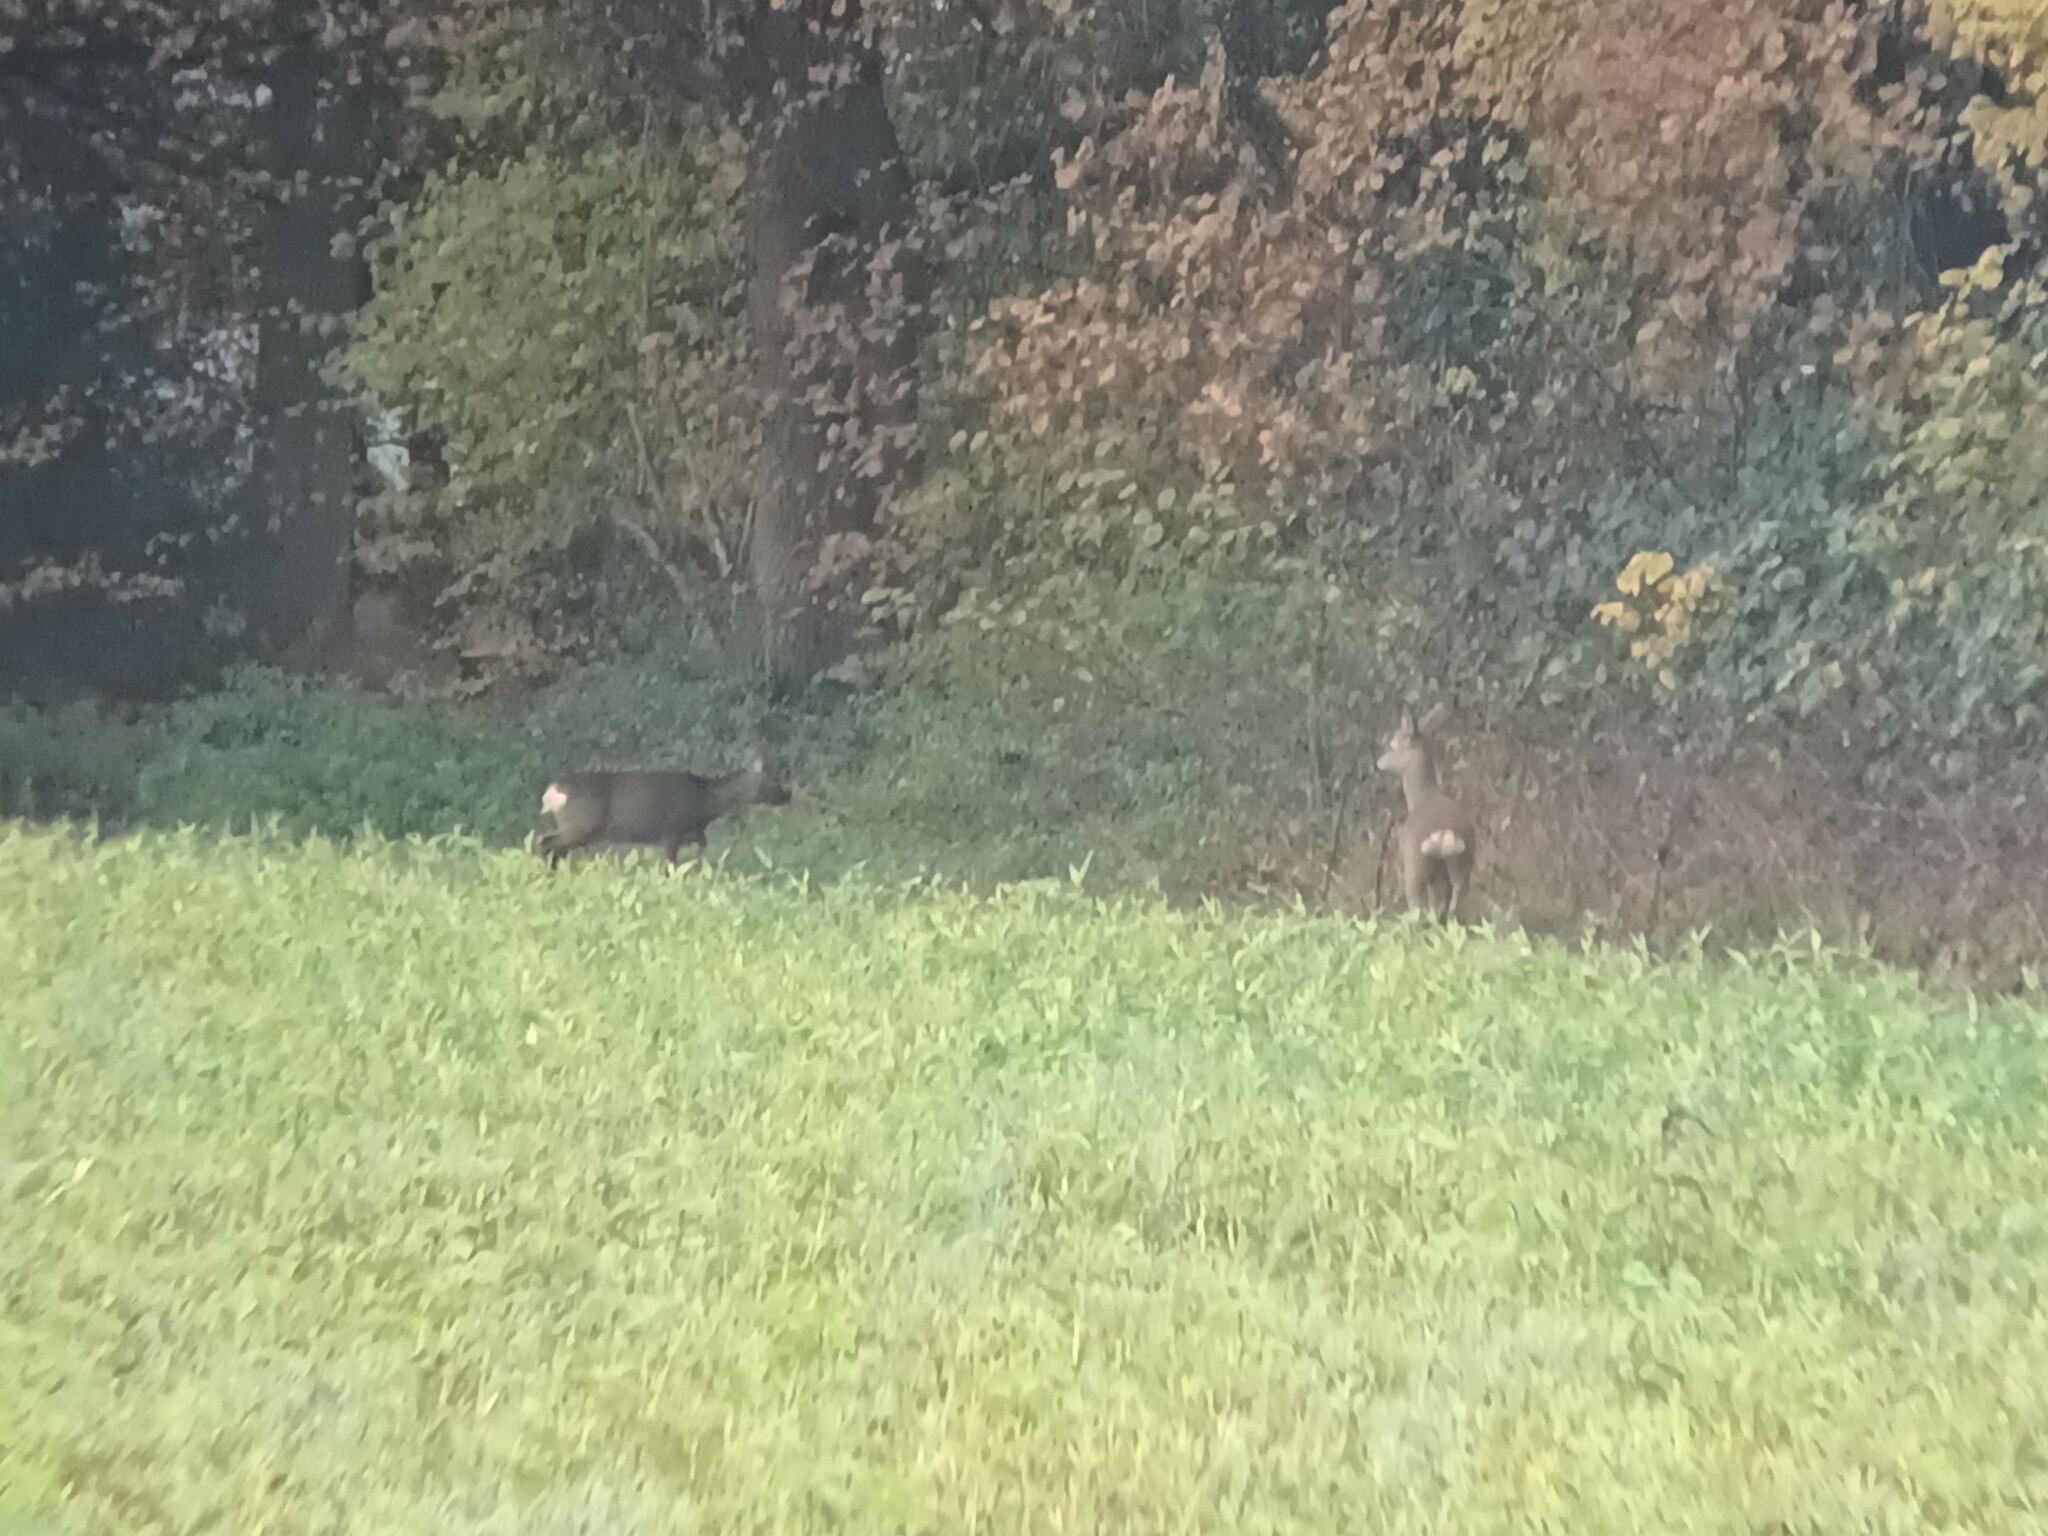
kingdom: Animalia
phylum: Chordata
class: Mammalia
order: Artiodactyla
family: Cervidae
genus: Capreolus
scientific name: Capreolus capreolus
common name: Western roe deer
